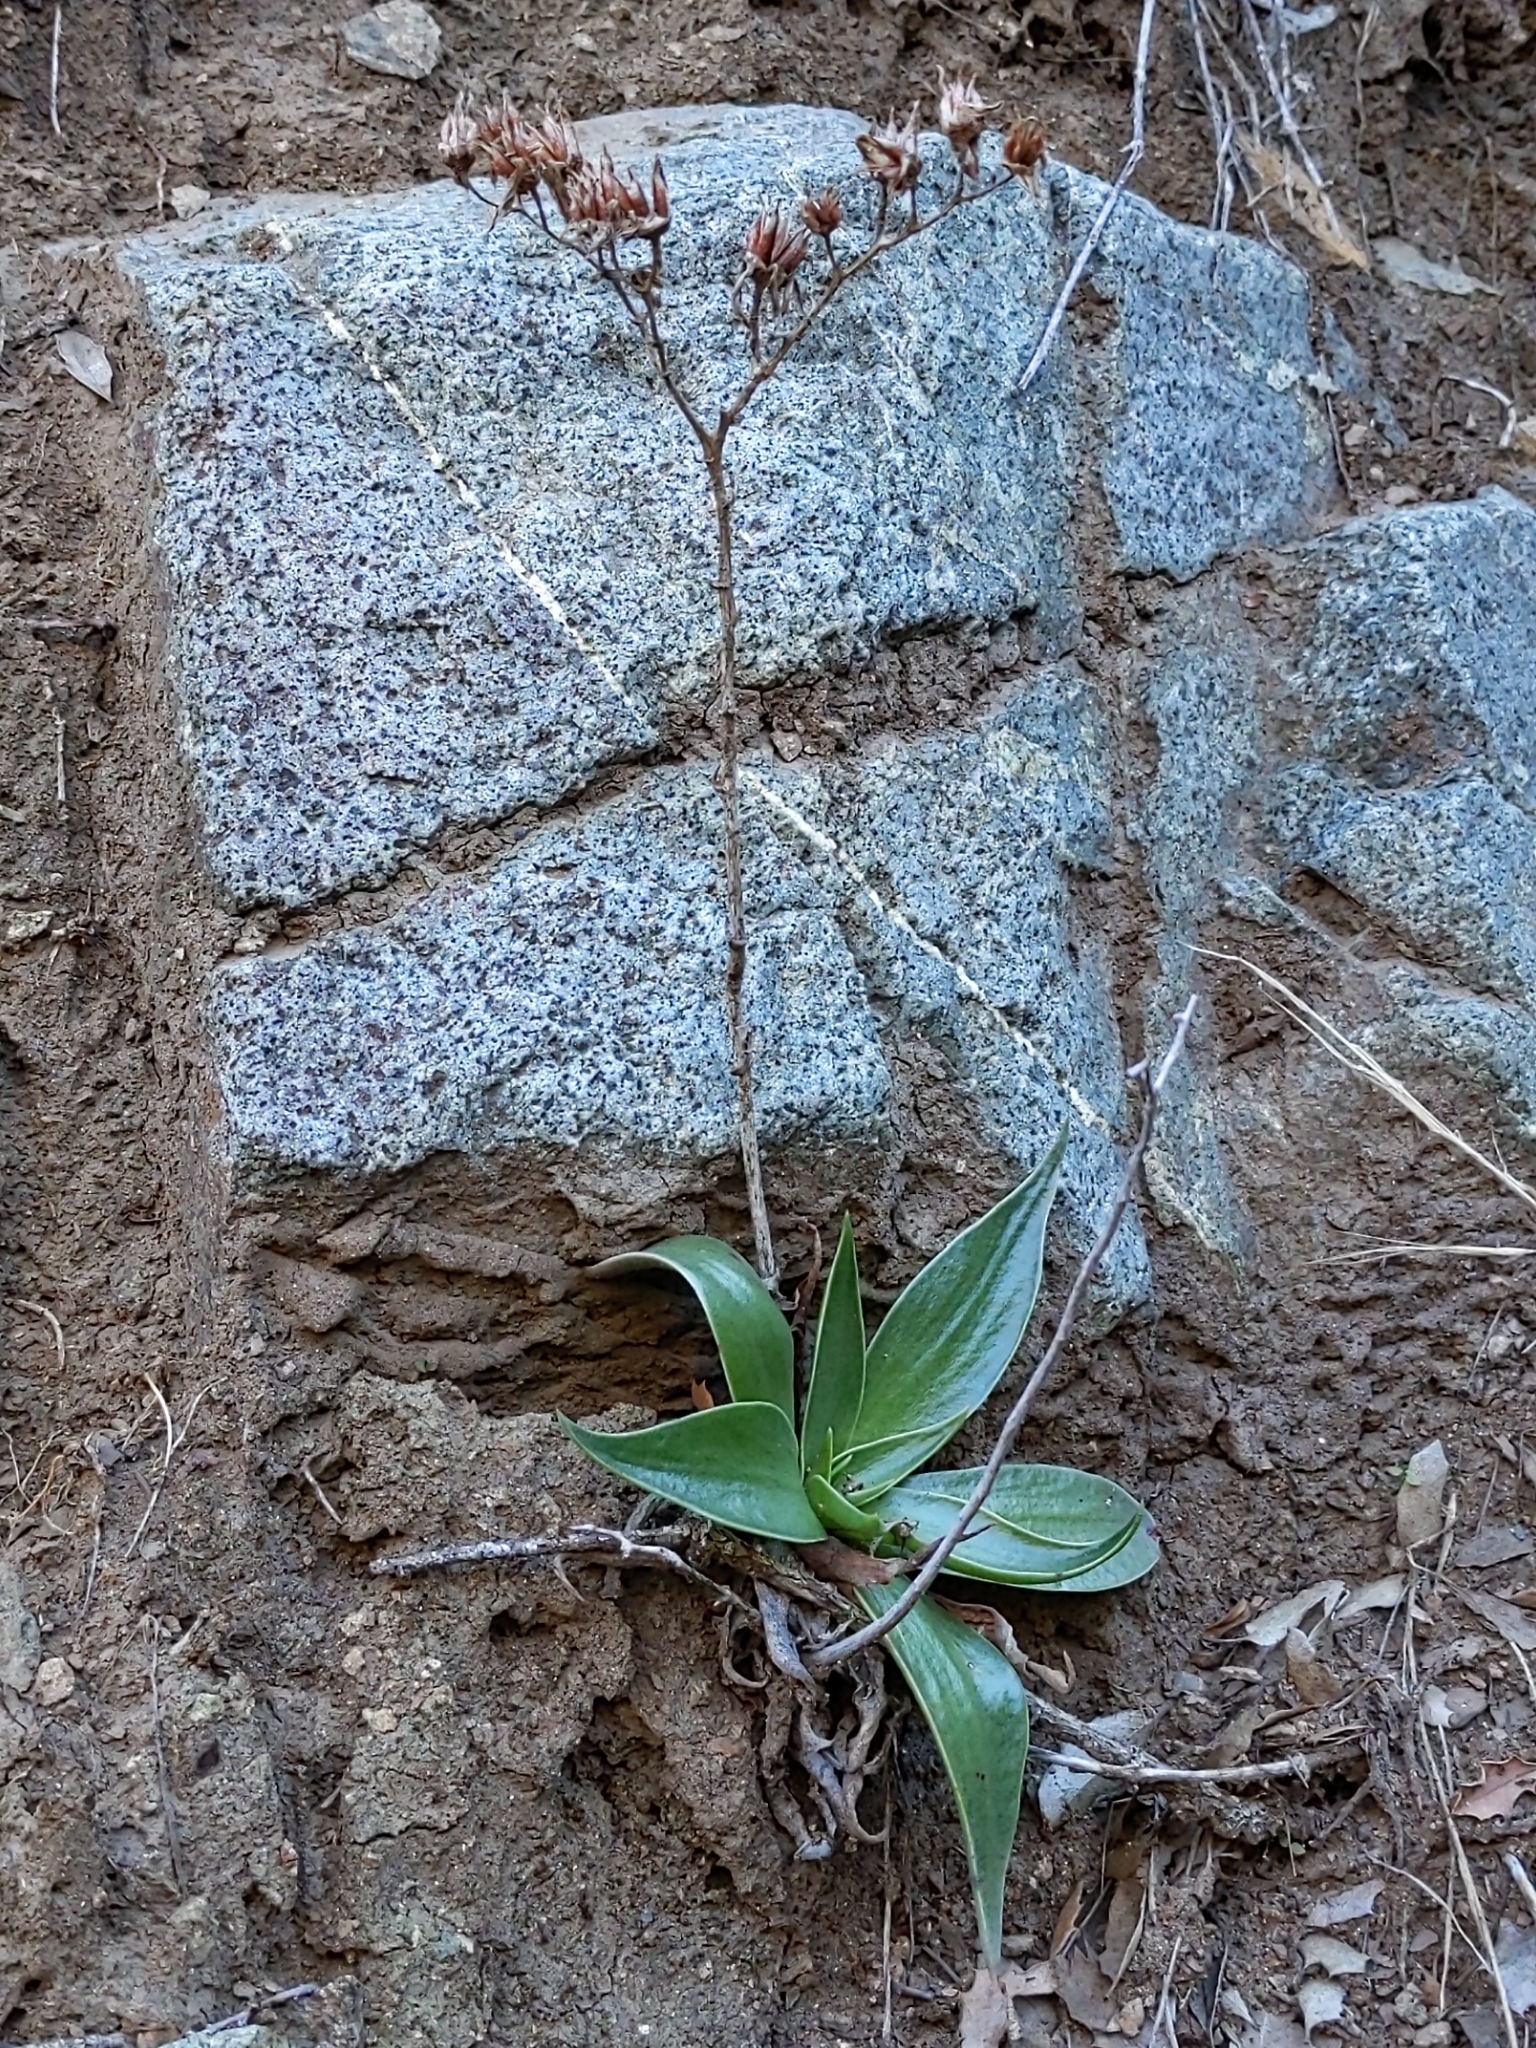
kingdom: Plantae
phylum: Tracheophyta
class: Magnoliopsida
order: Saxifragales
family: Crassulaceae
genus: Dudleya
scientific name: Dudleya lanceolata
